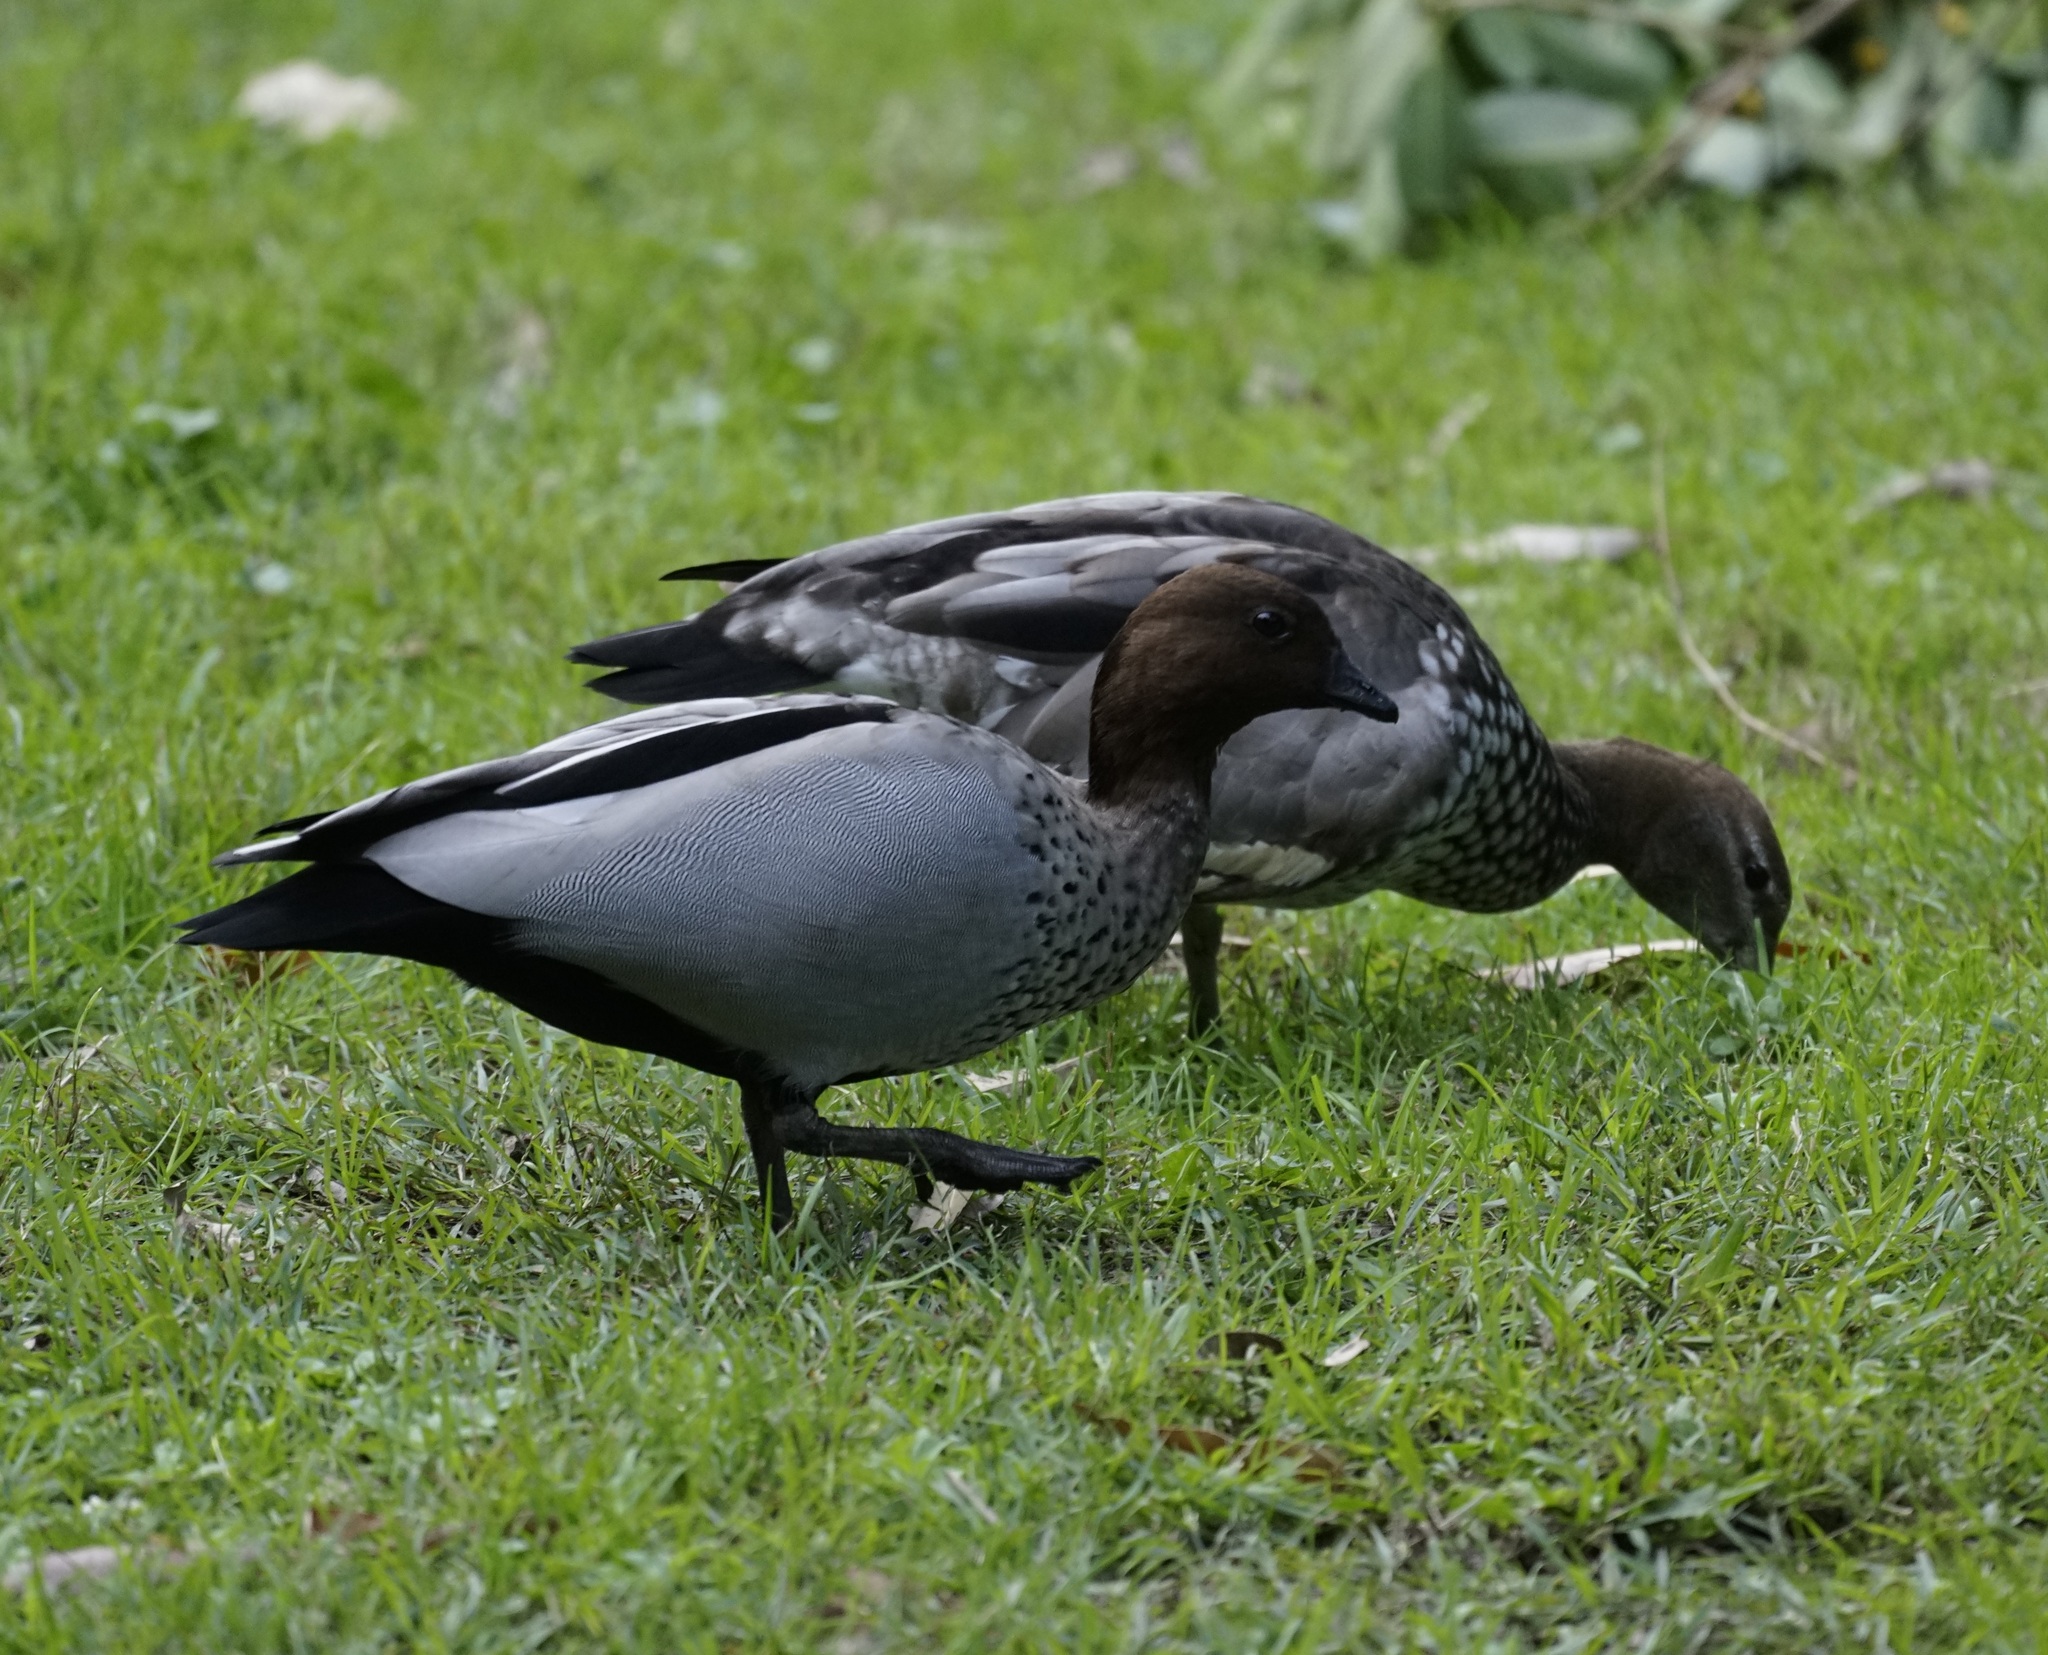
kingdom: Animalia
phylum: Chordata
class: Aves
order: Anseriformes
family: Anatidae
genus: Chenonetta
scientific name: Chenonetta jubata
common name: Maned duck
